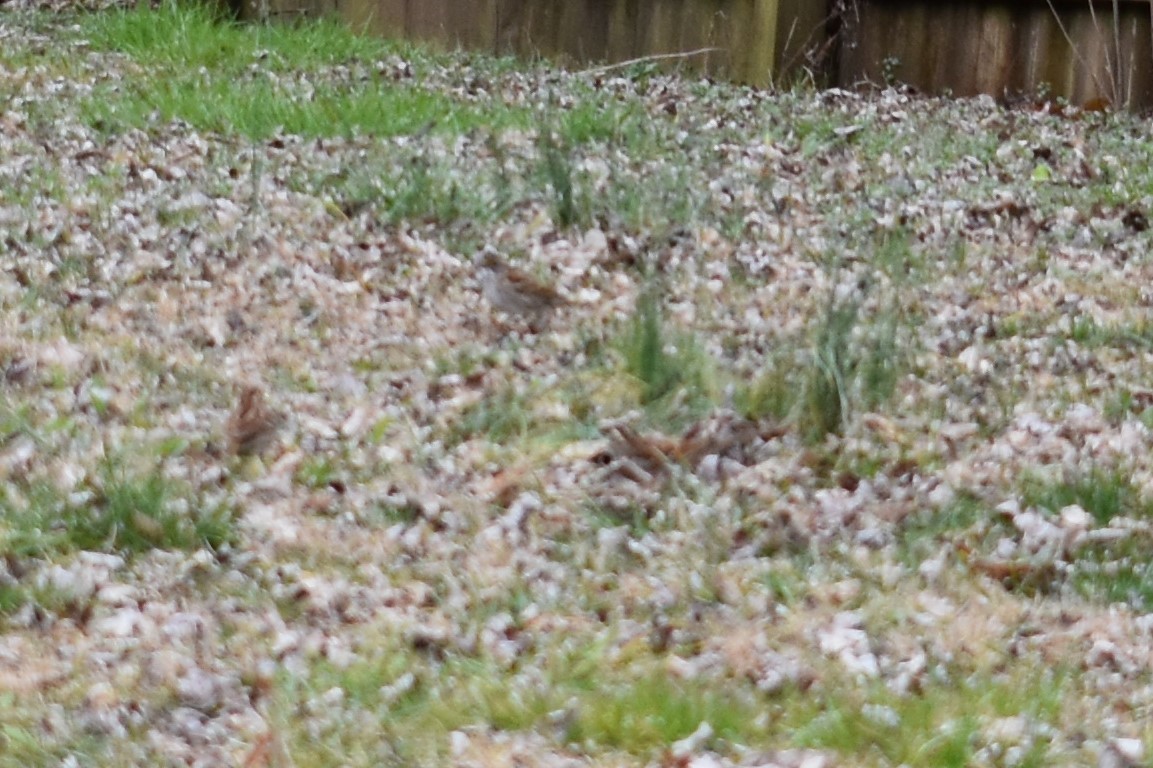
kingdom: Animalia
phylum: Chordata
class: Aves
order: Passeriformes
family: Passerellidae
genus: Zonotrichia
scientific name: Zonotrichia albicollis
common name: White-throated sparrow
